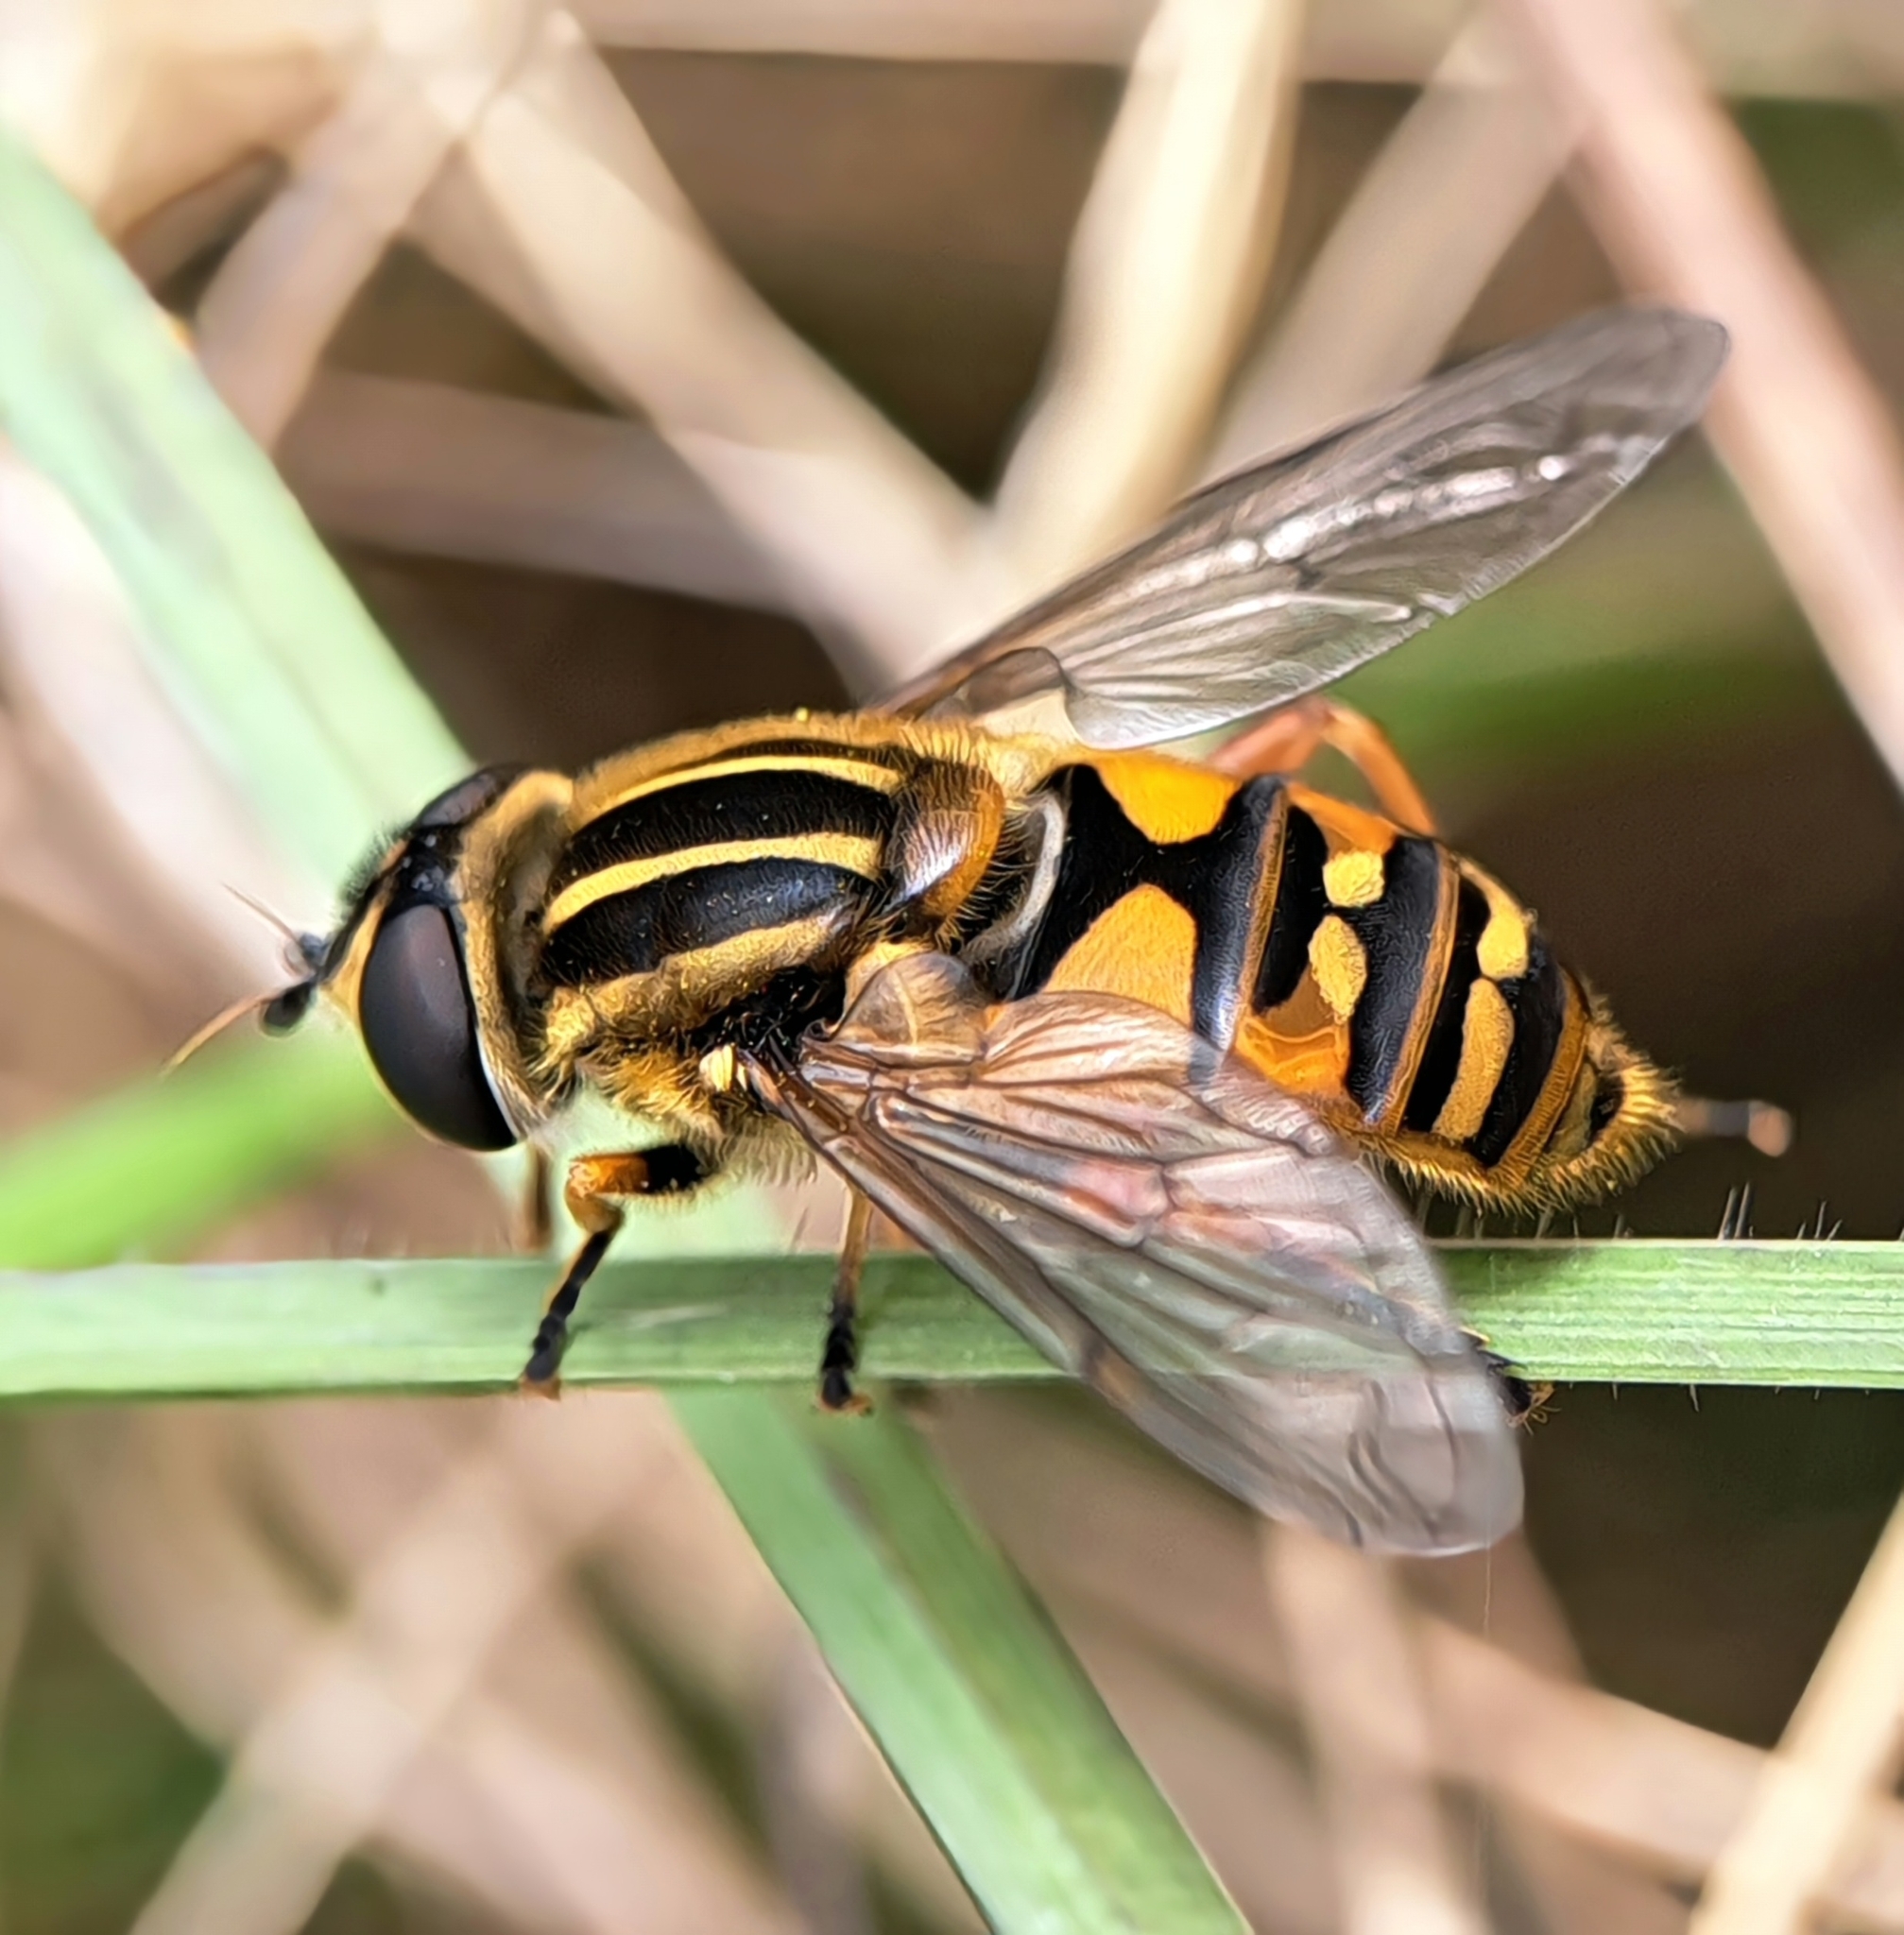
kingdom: Animalia
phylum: Arthropoda
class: Insecta
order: Diptera
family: Syrphidae
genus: Helophilus
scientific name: Helophilus pendulus
